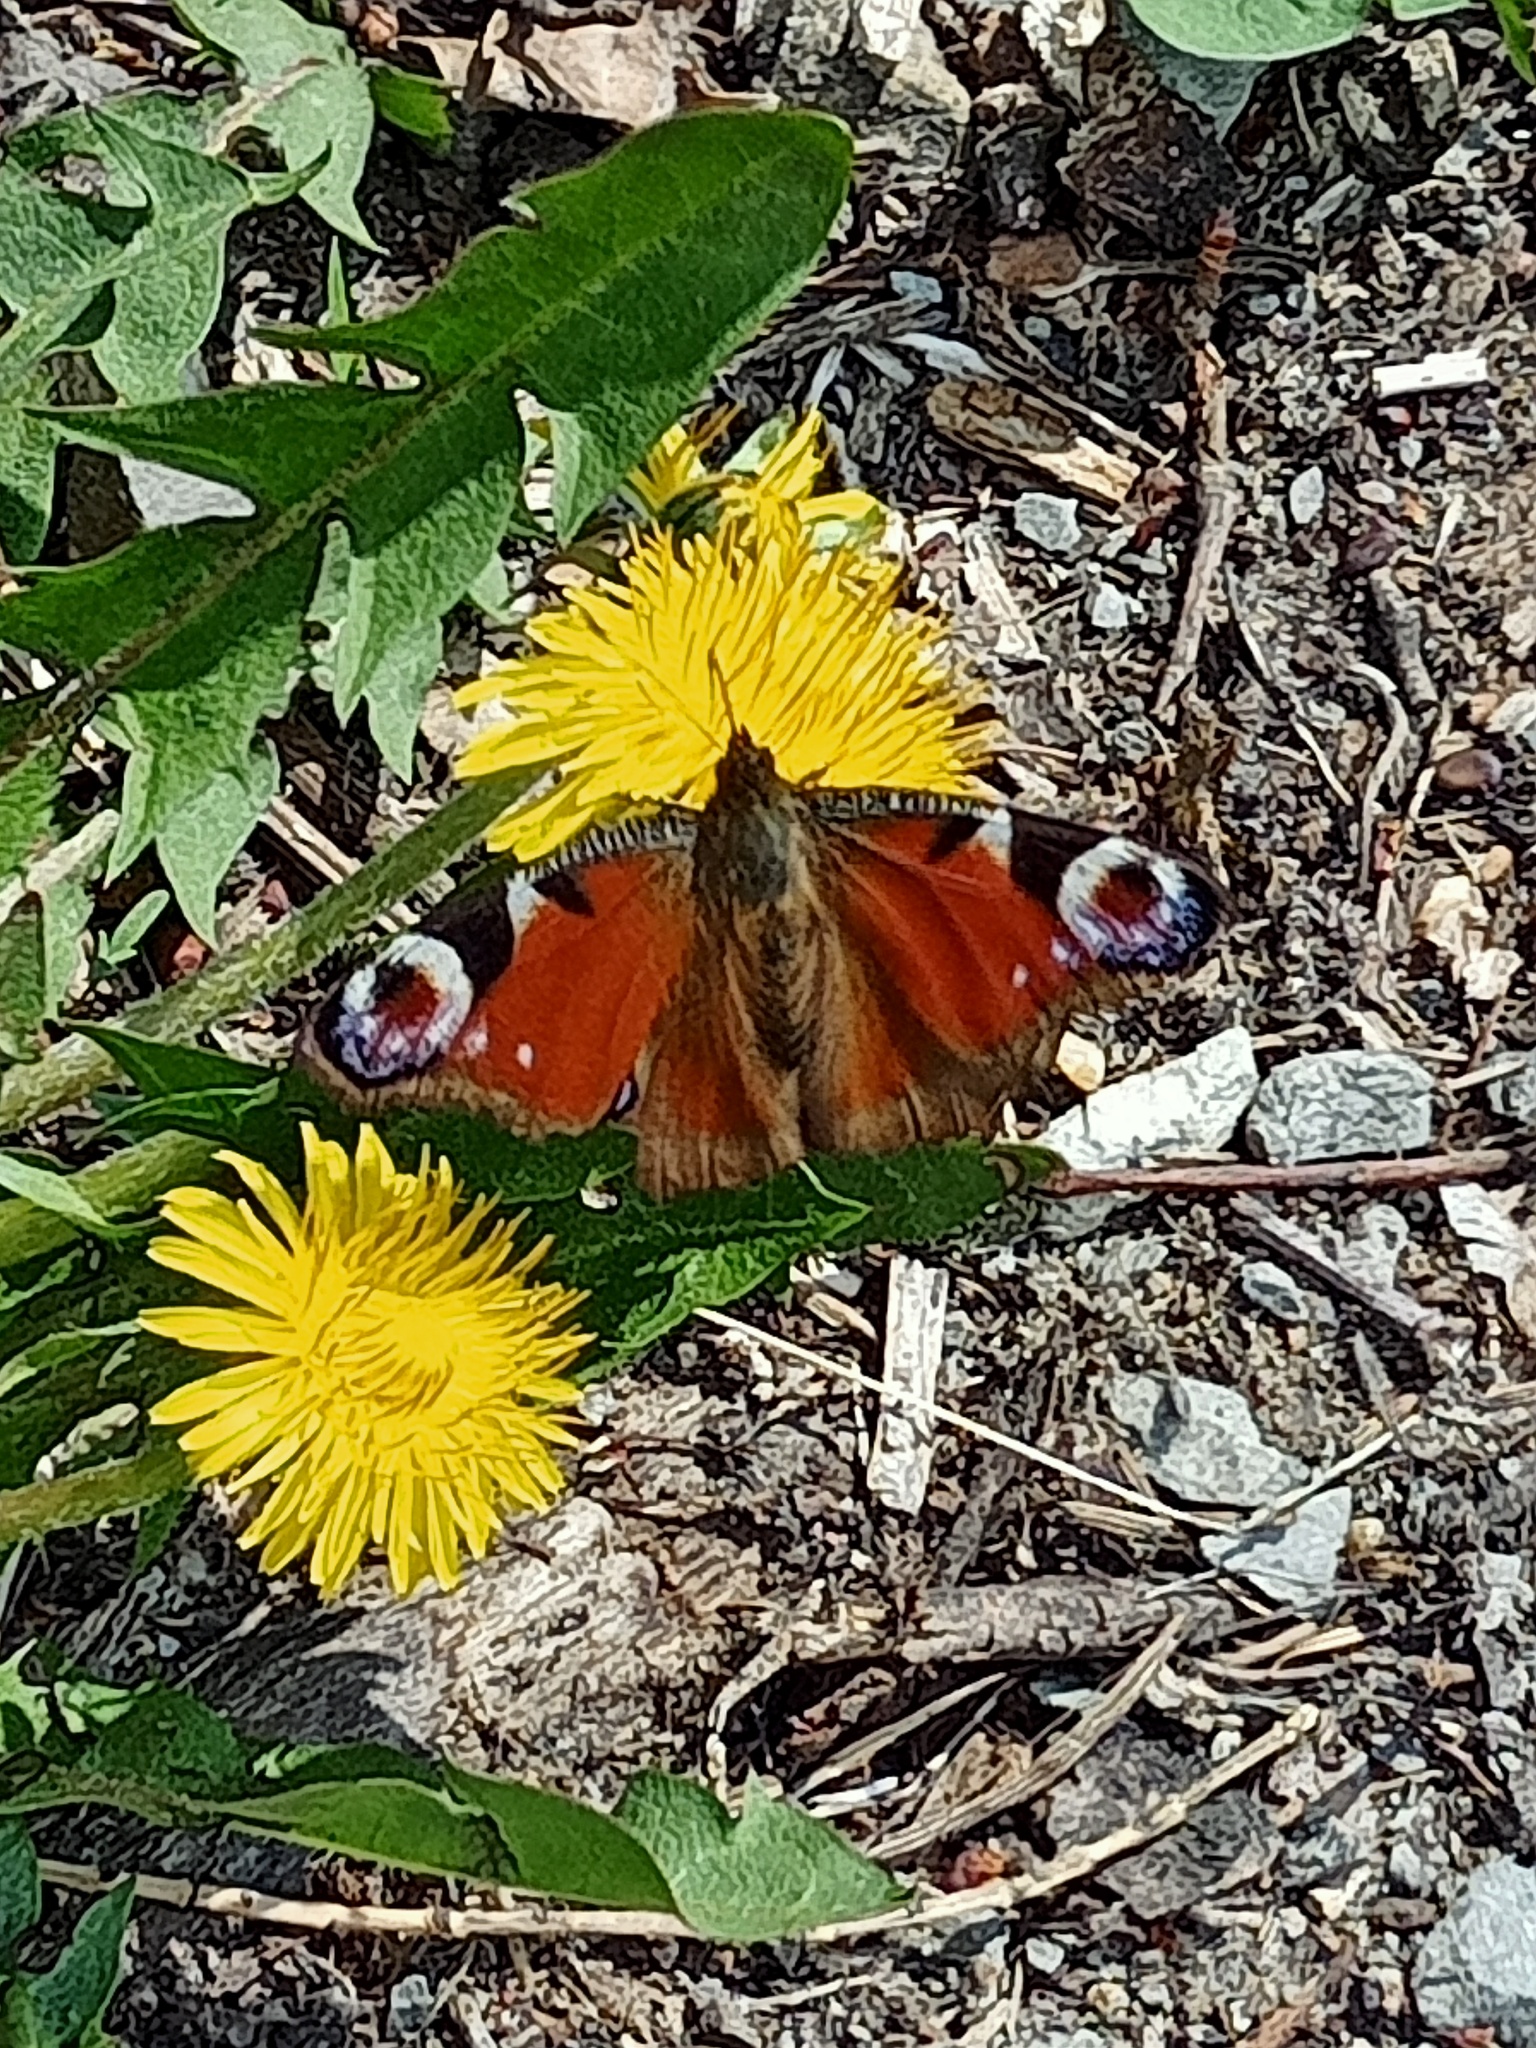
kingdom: Animalia
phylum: Arthropoda
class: Insecta
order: Lepidoptera
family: Nymphalidae
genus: Aglais
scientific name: Aglais io
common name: Peacock
